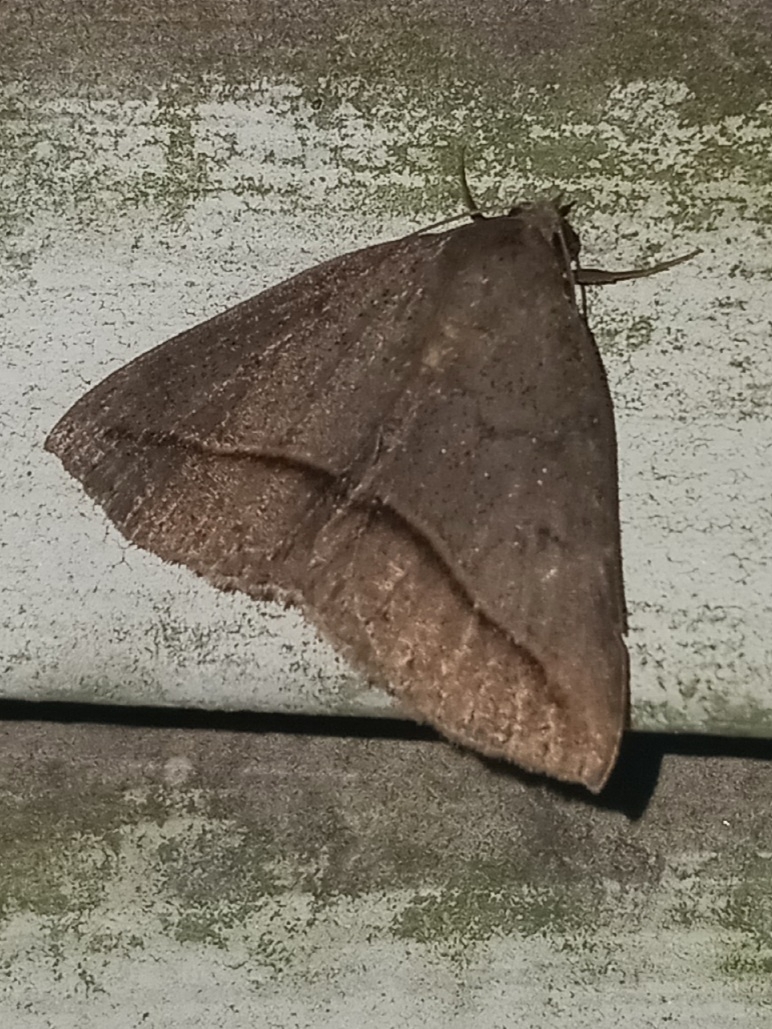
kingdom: Animalia
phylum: Arthropoda
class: Insecta
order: Lepidoptera
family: Erebidae
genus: Argyrostrotis
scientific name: Argyrostrotis flavistriaria
